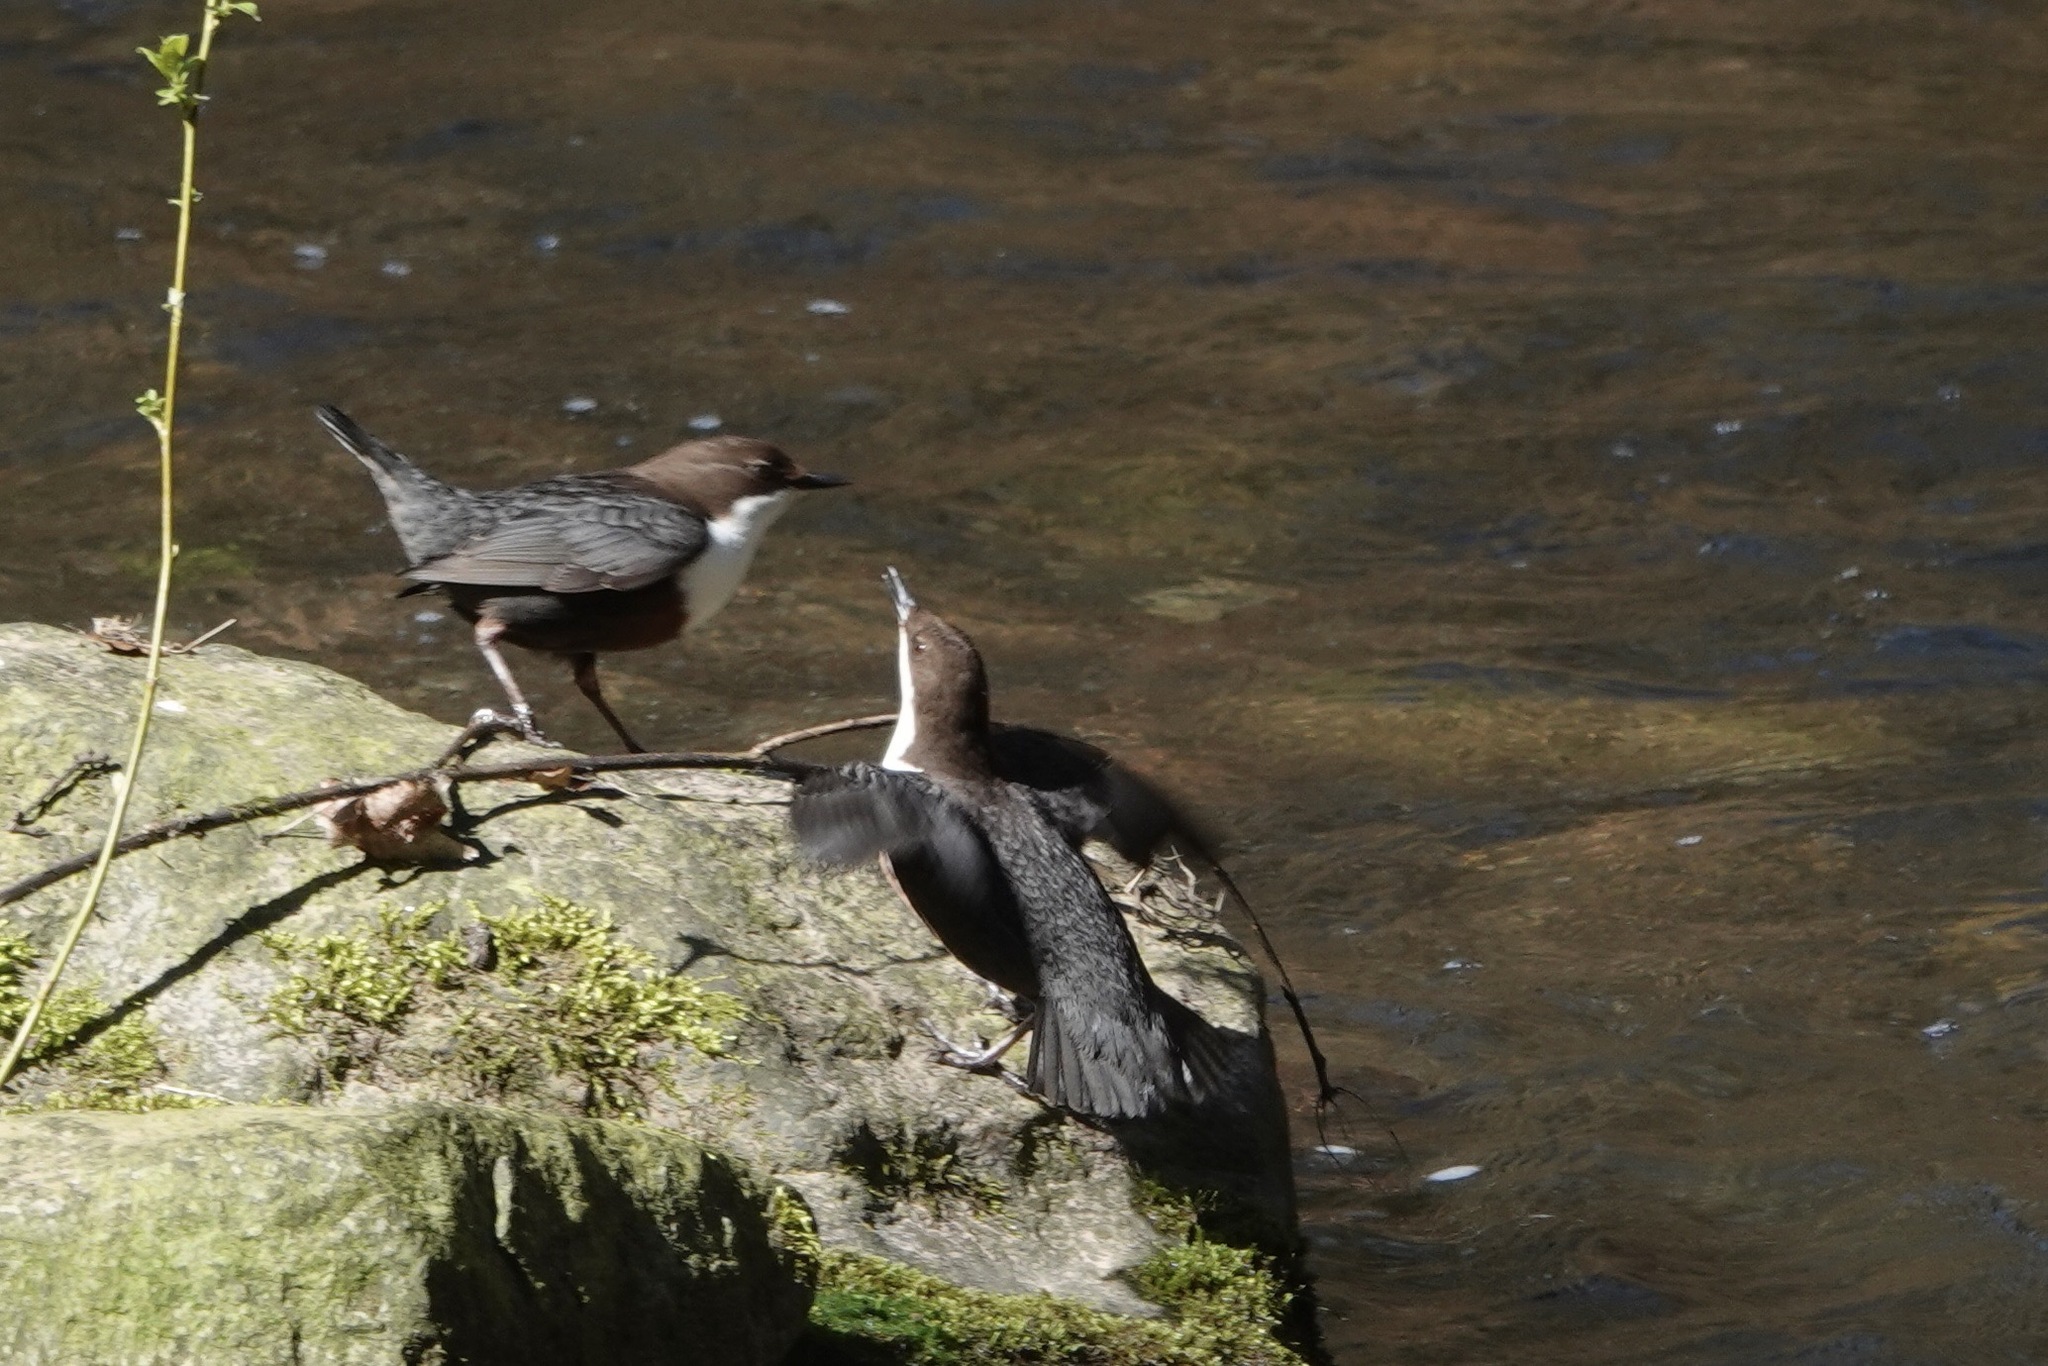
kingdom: Animalia
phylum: Chordata
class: Aves
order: Passeriformes
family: Cinclidae
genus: Cinclus
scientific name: Cinclus cinclus
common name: White-throated dipper
